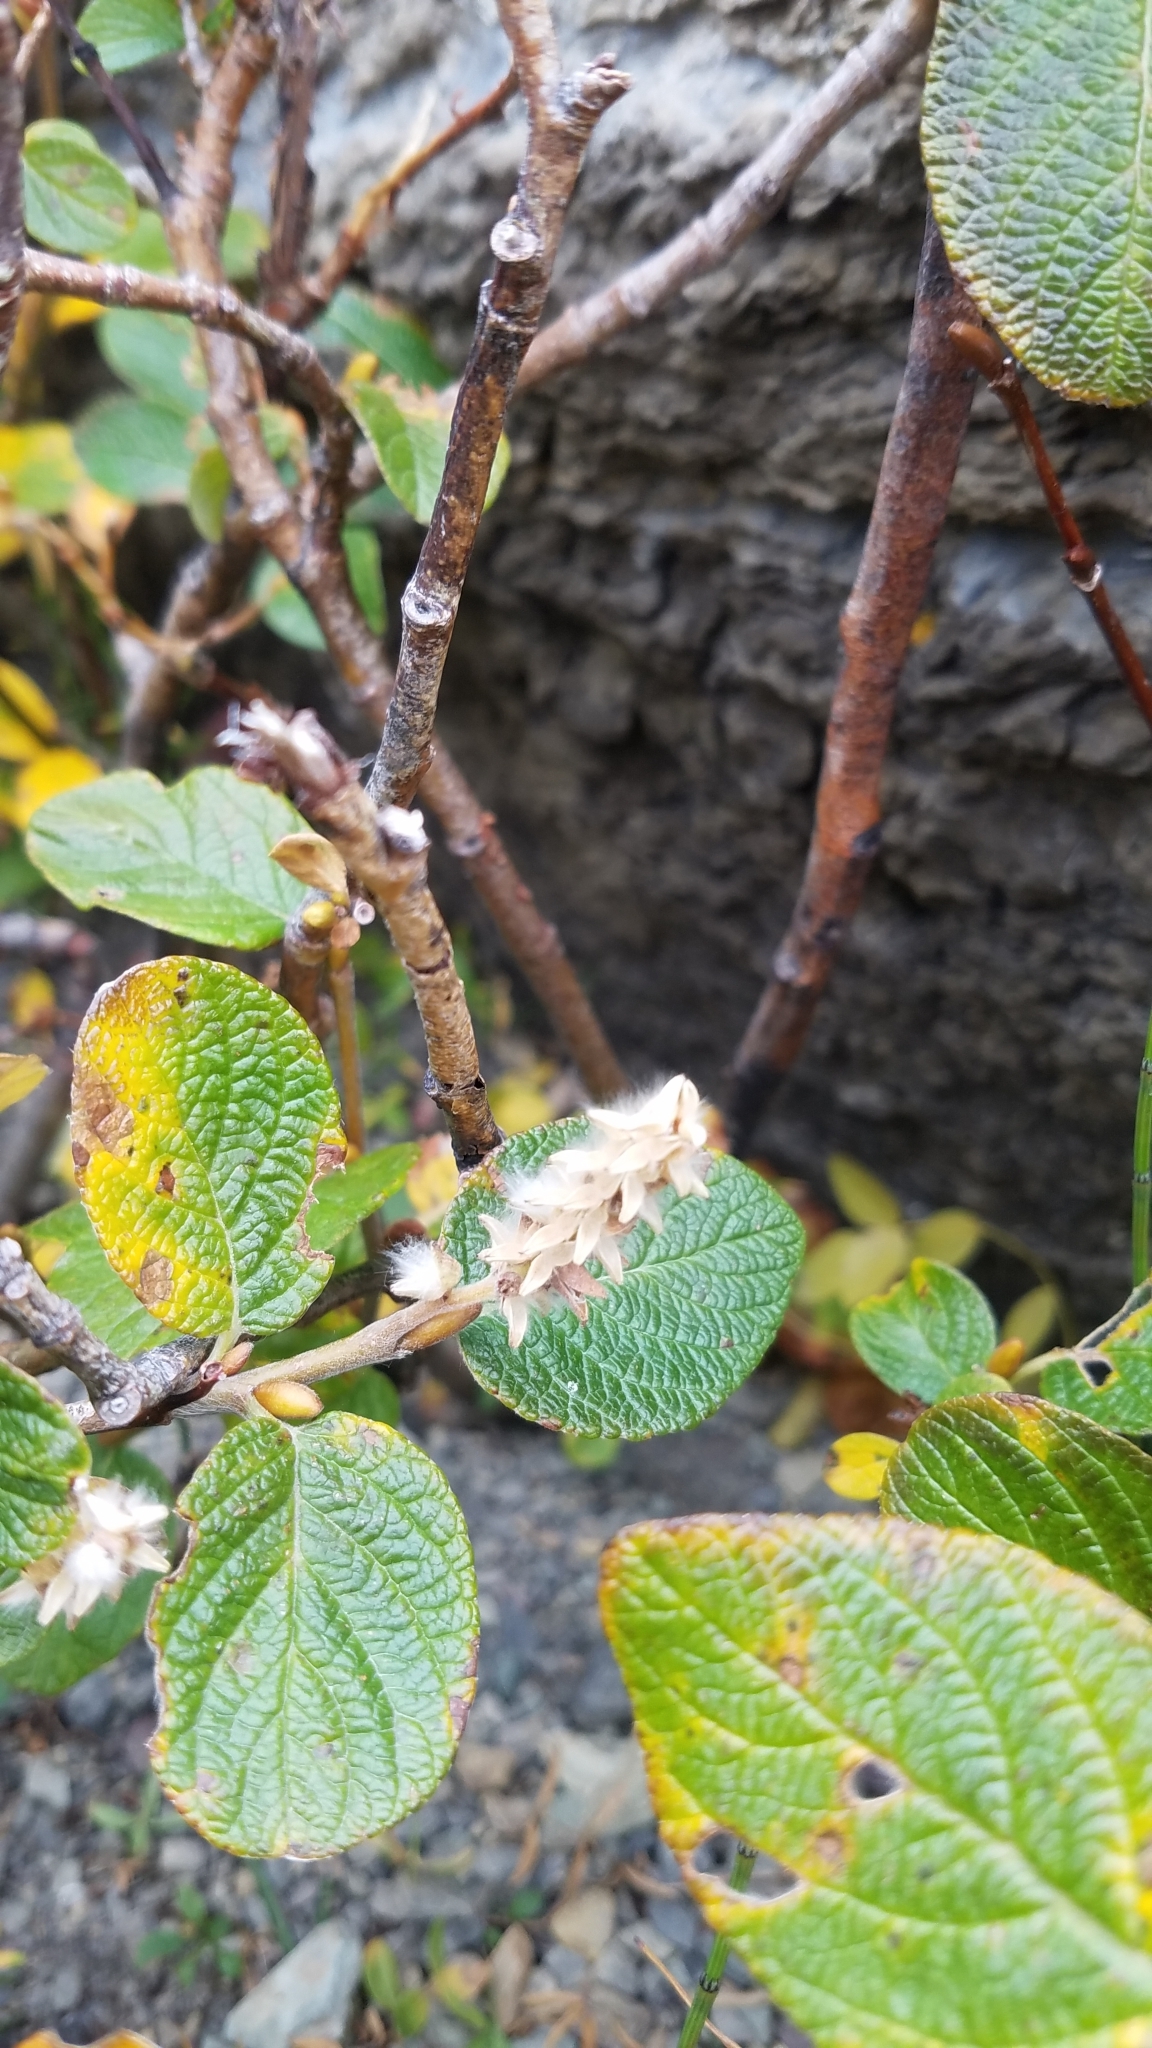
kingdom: Plantae
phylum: Tracheophyta
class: Magnoliopsida
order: Malpighiales
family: Salicaceae
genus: Salix
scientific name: Salix vestita
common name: Hairy willow
